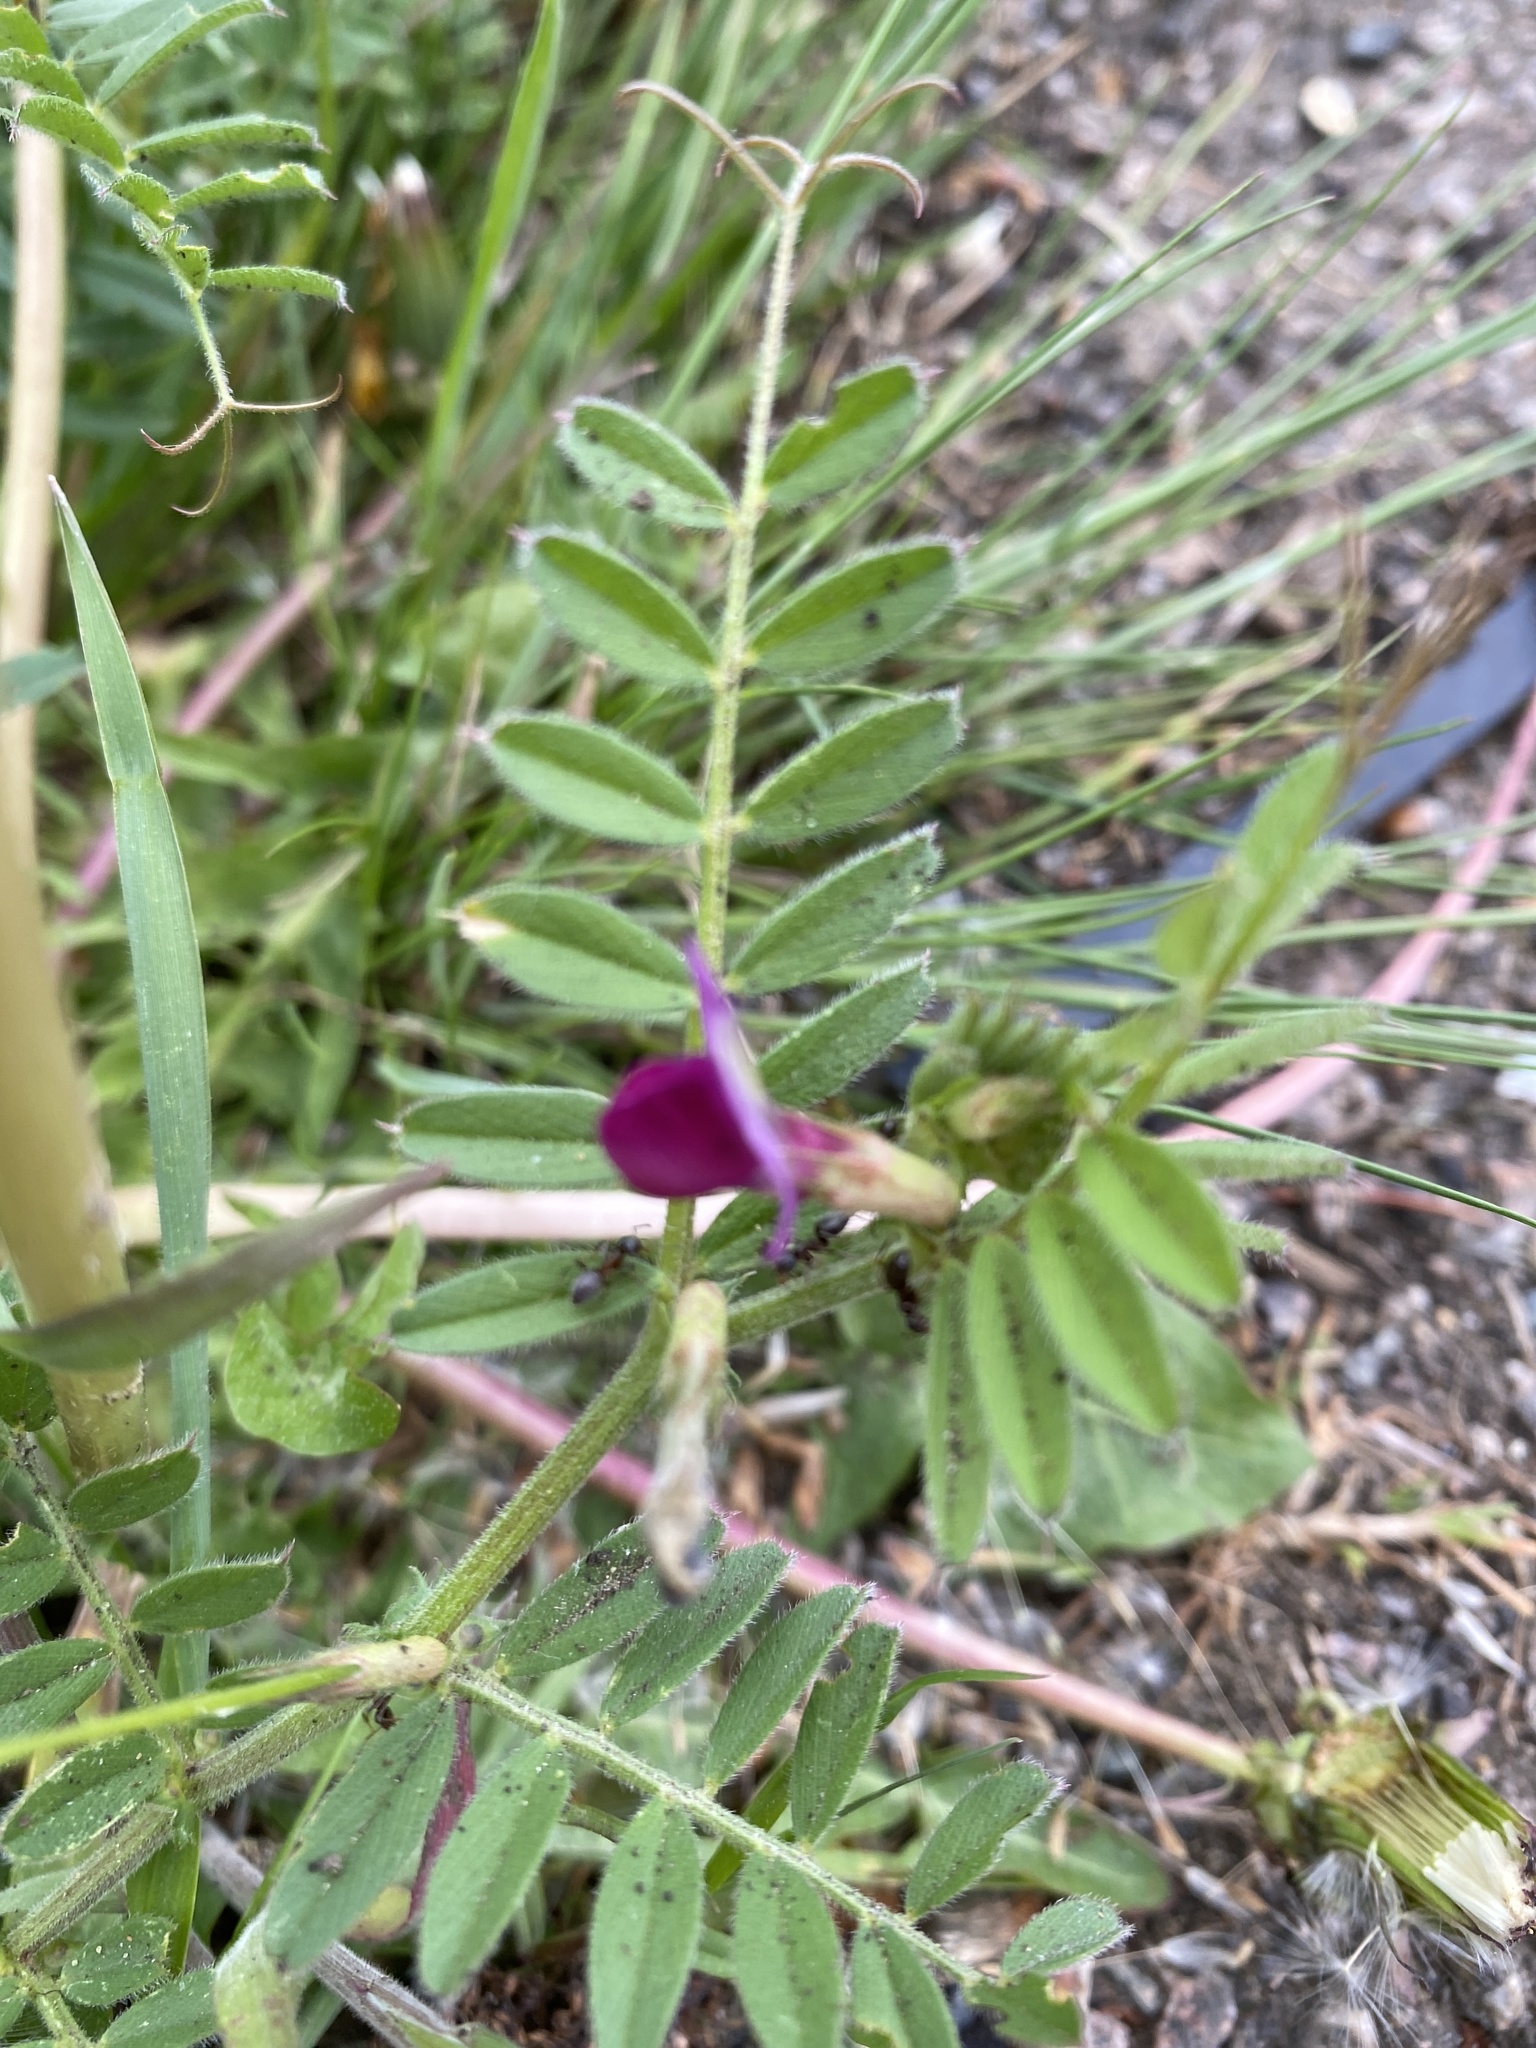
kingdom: Plantae
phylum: Tracheophyta
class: Magnoliopsida
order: Fabales
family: Fabaceae
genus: Vicia
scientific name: Vicia sativa
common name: Garden vetch
